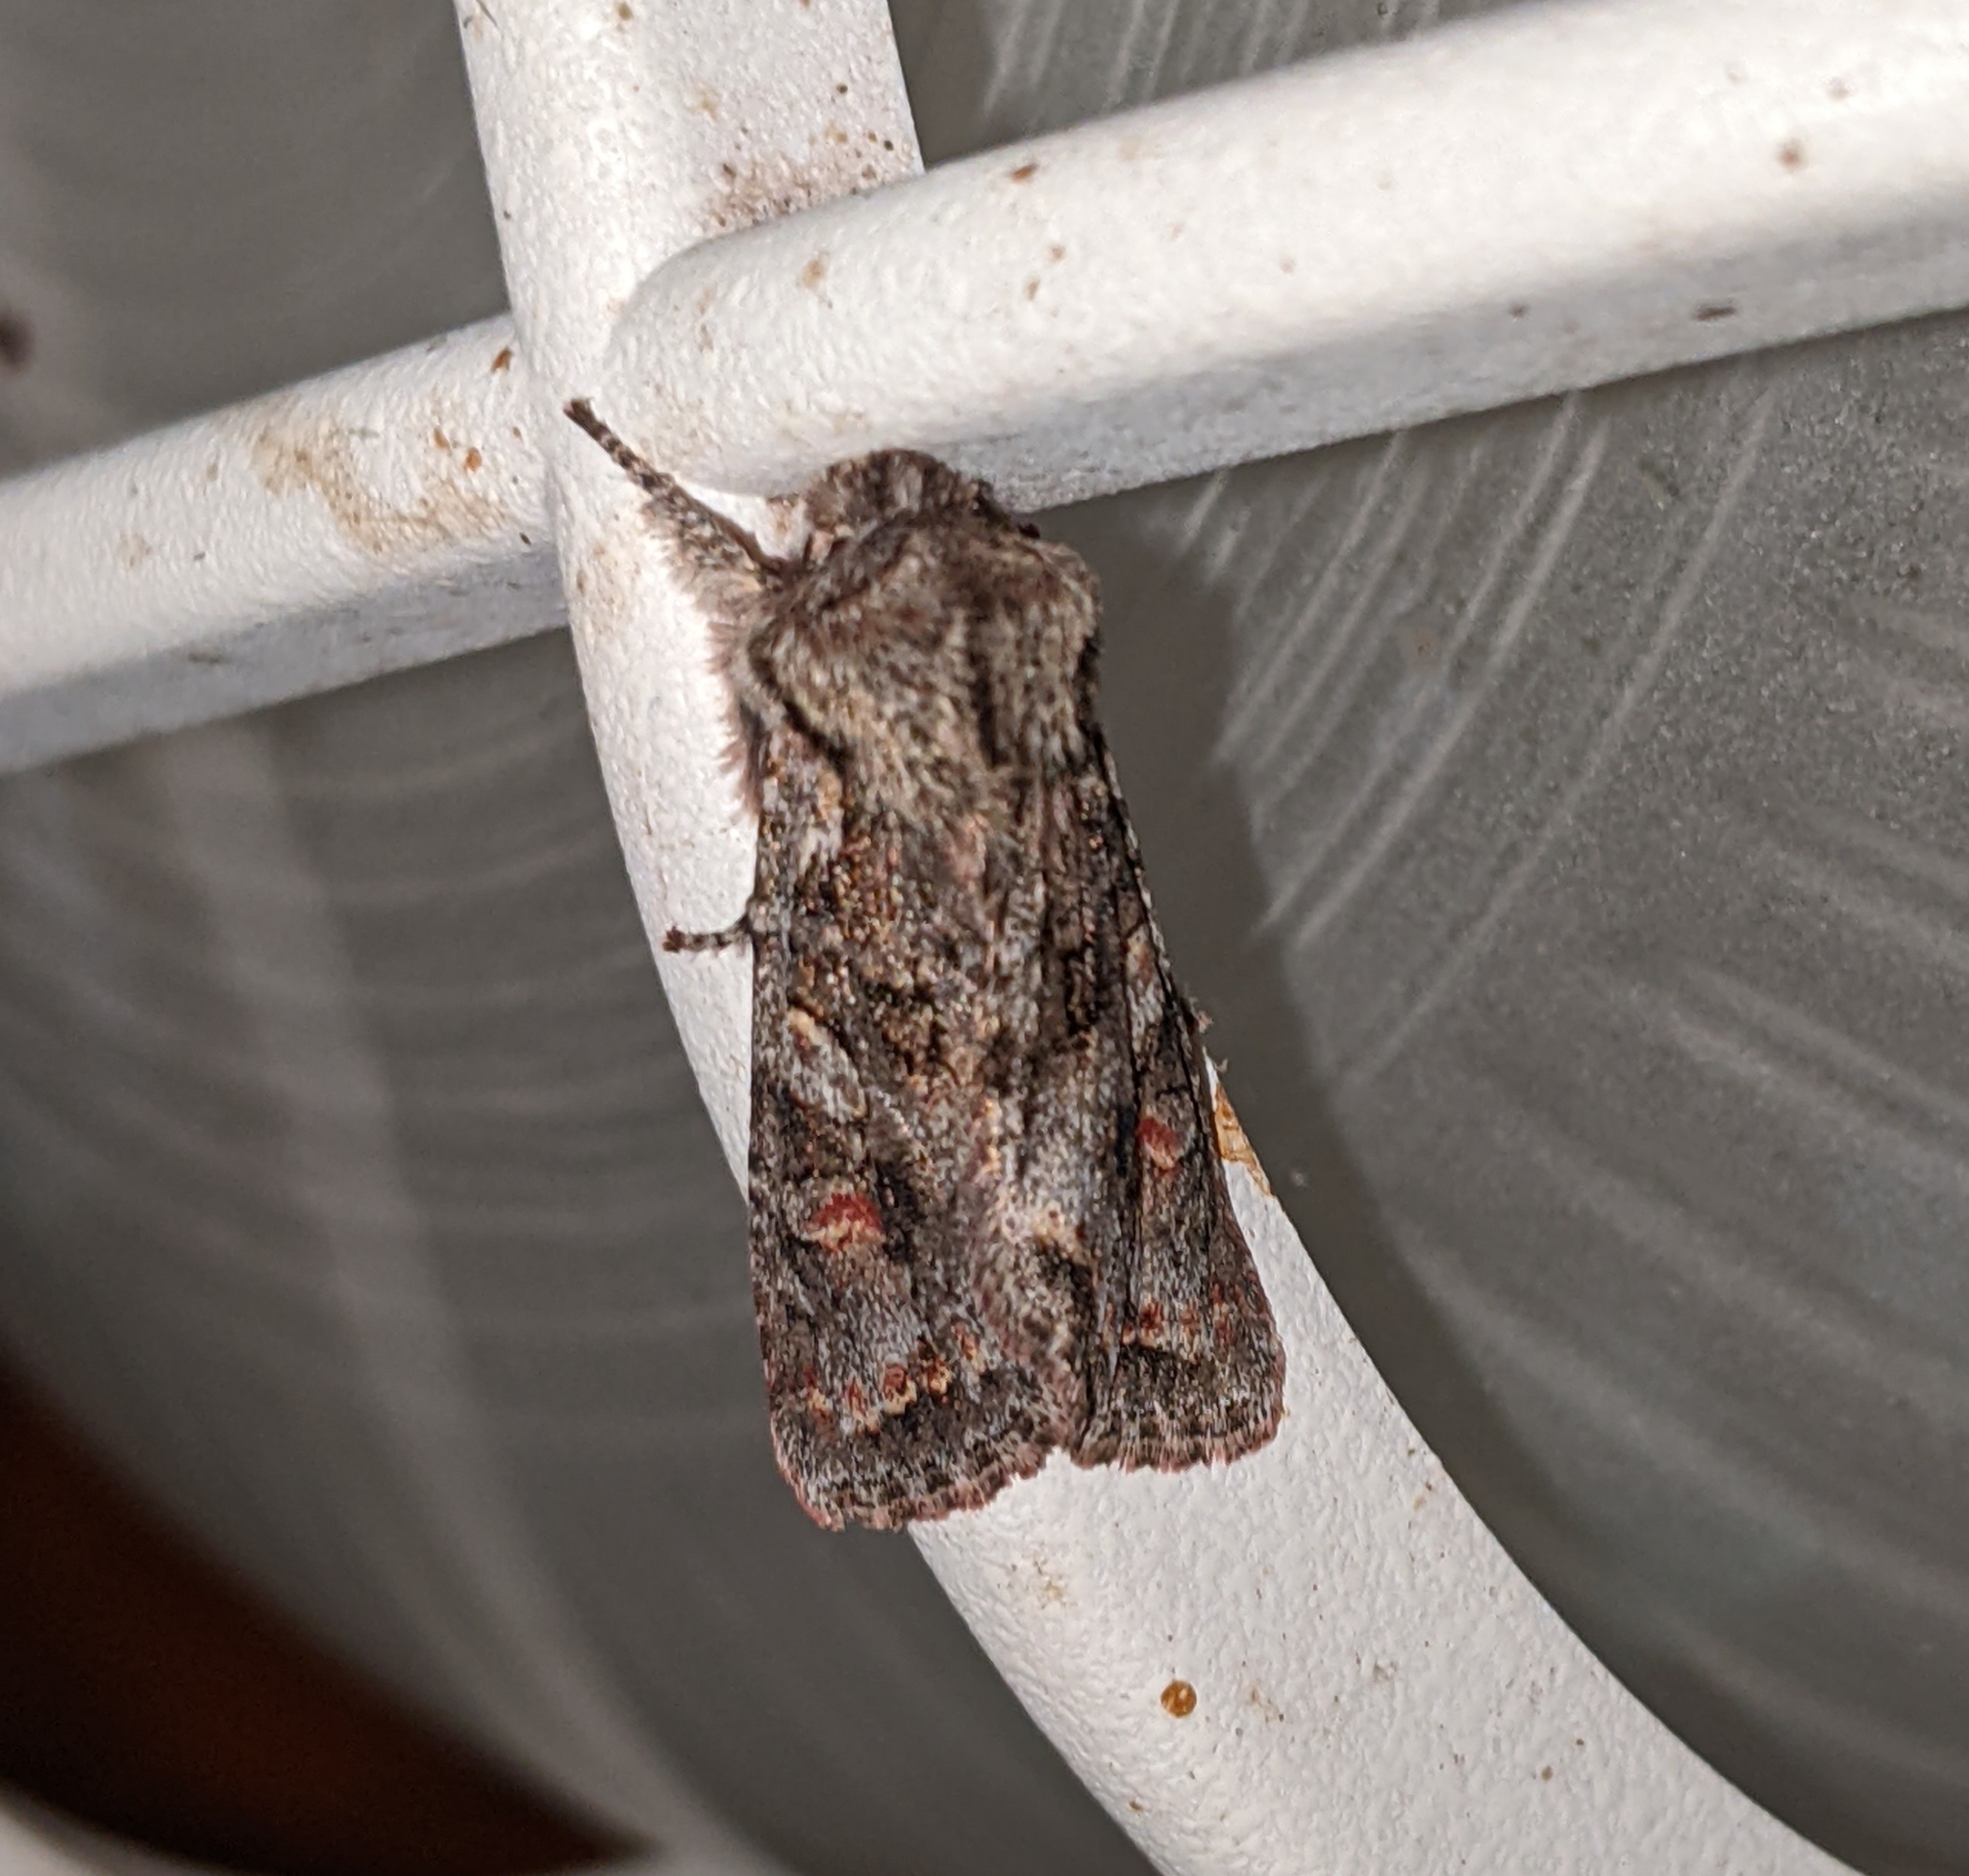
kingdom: Animalia
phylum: Arthropoda
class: Insecta
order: Lepidoptera
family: Noctuidae
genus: Egira
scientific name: Egira hiemalis
